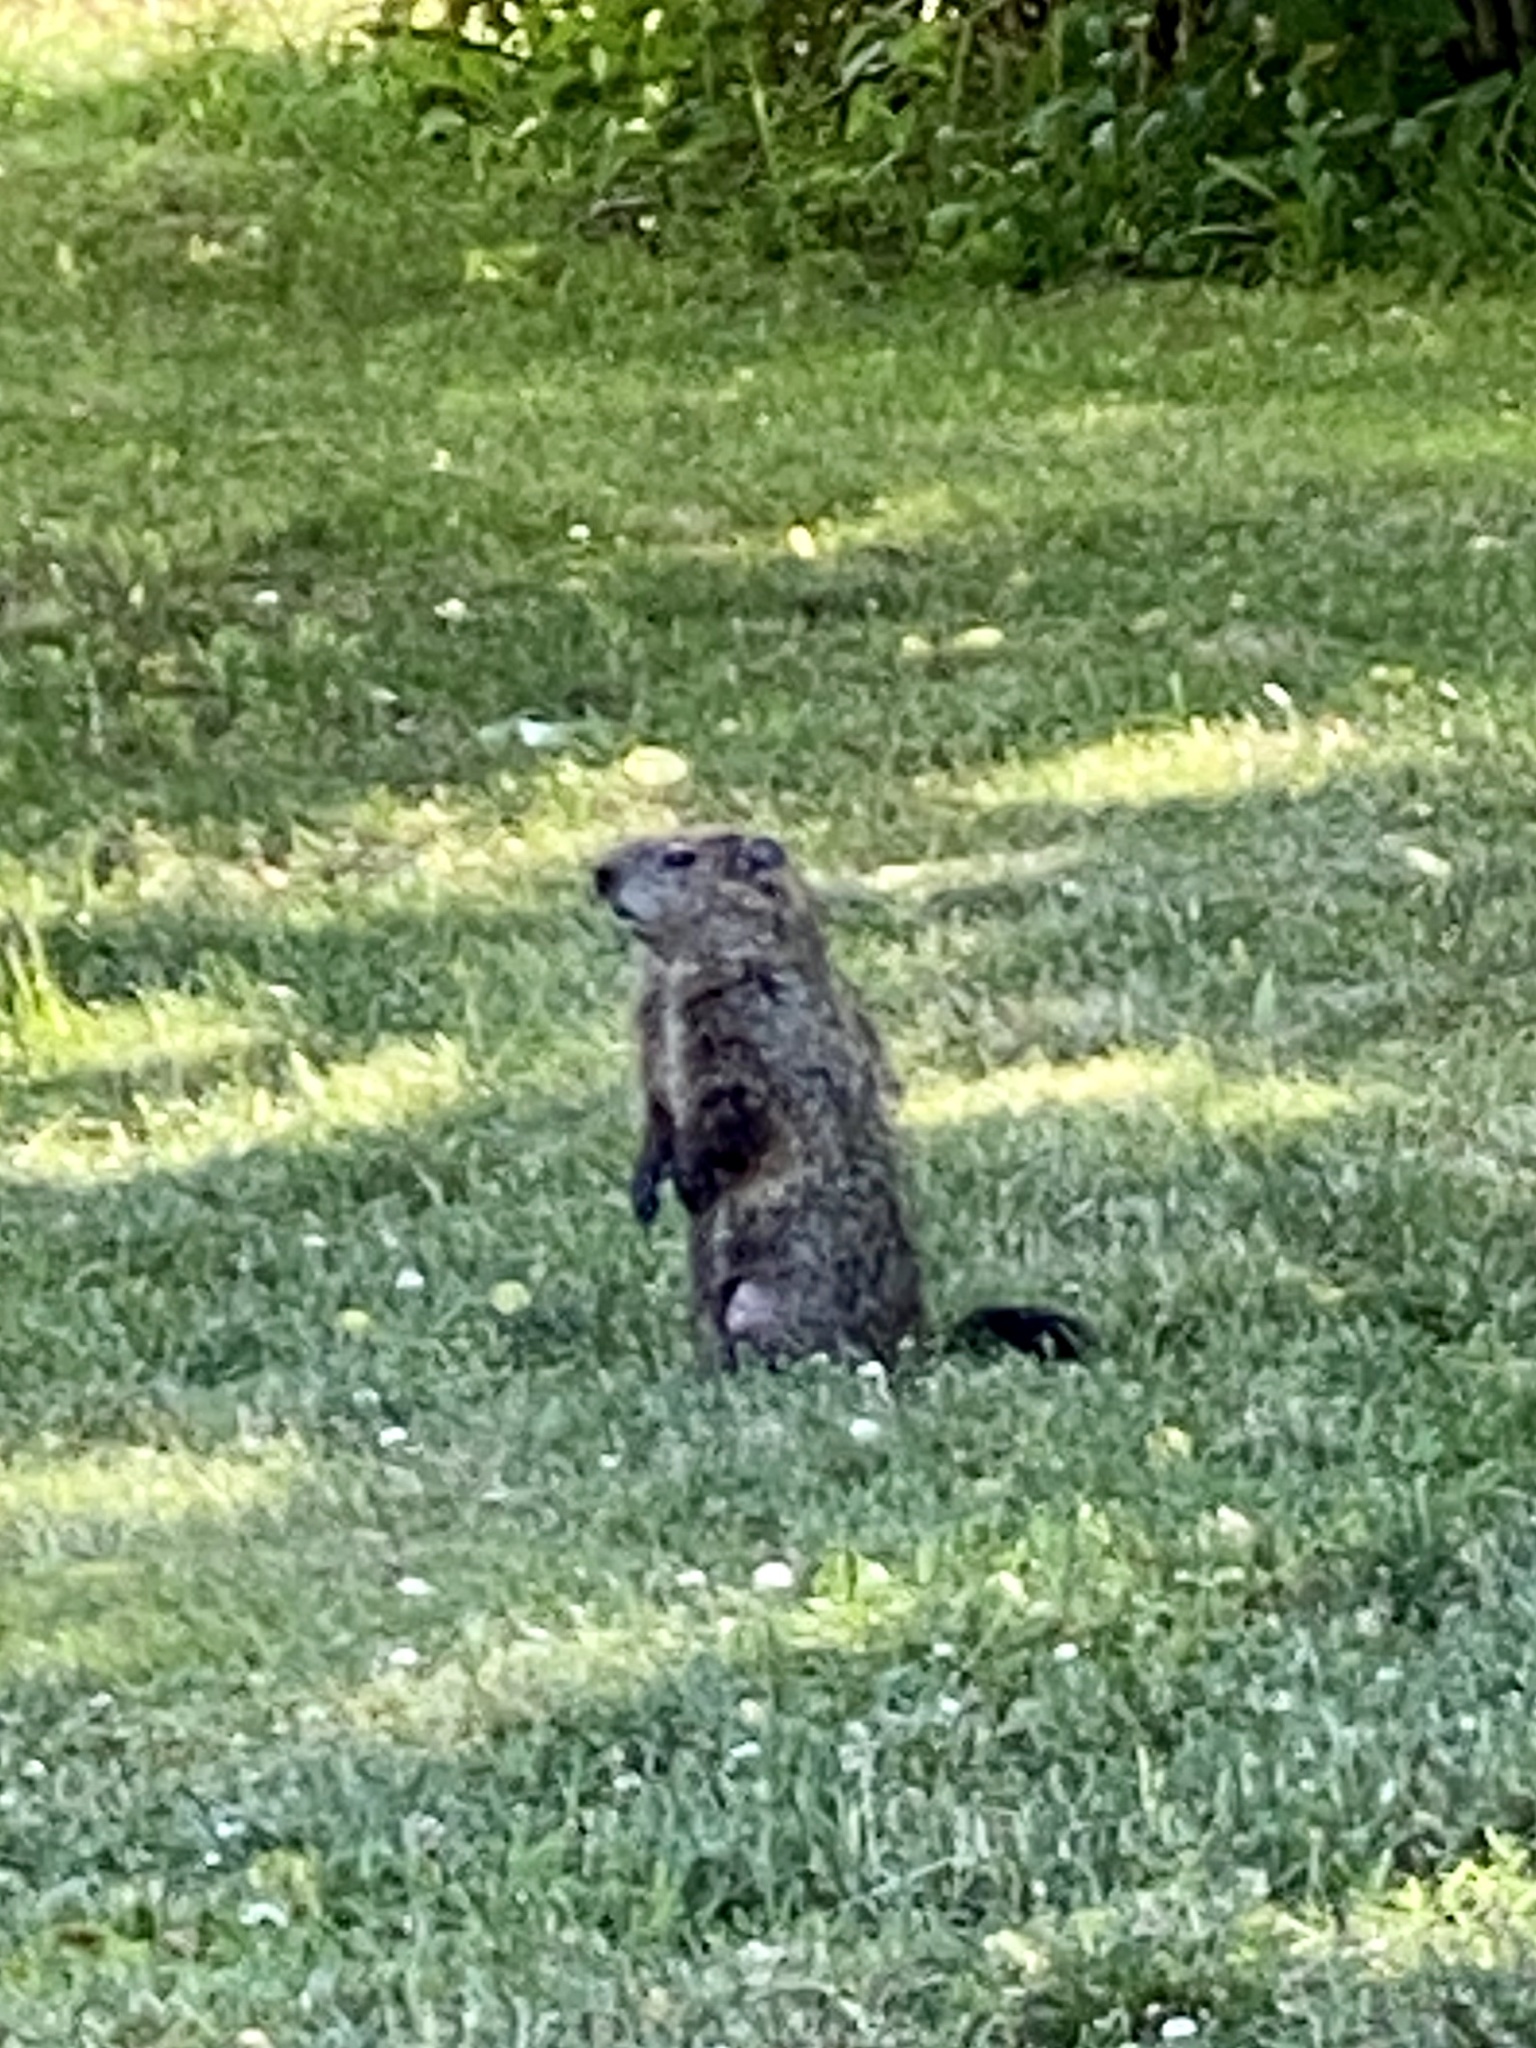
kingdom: Animalia
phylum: Chordata
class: Mammalia
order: Rodentia
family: Sciuridae
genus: Marmota
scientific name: Marmota monax
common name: Groundhog
